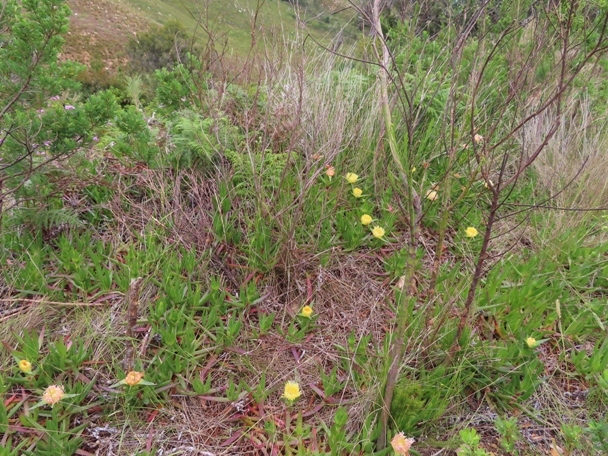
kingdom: Plantae
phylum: Tracheophyta
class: Magnoliopsida
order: Caryophyllales
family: Aizoaceae
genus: Carpobrotus
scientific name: Carpobrotus edulis
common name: Hottentot-fig
